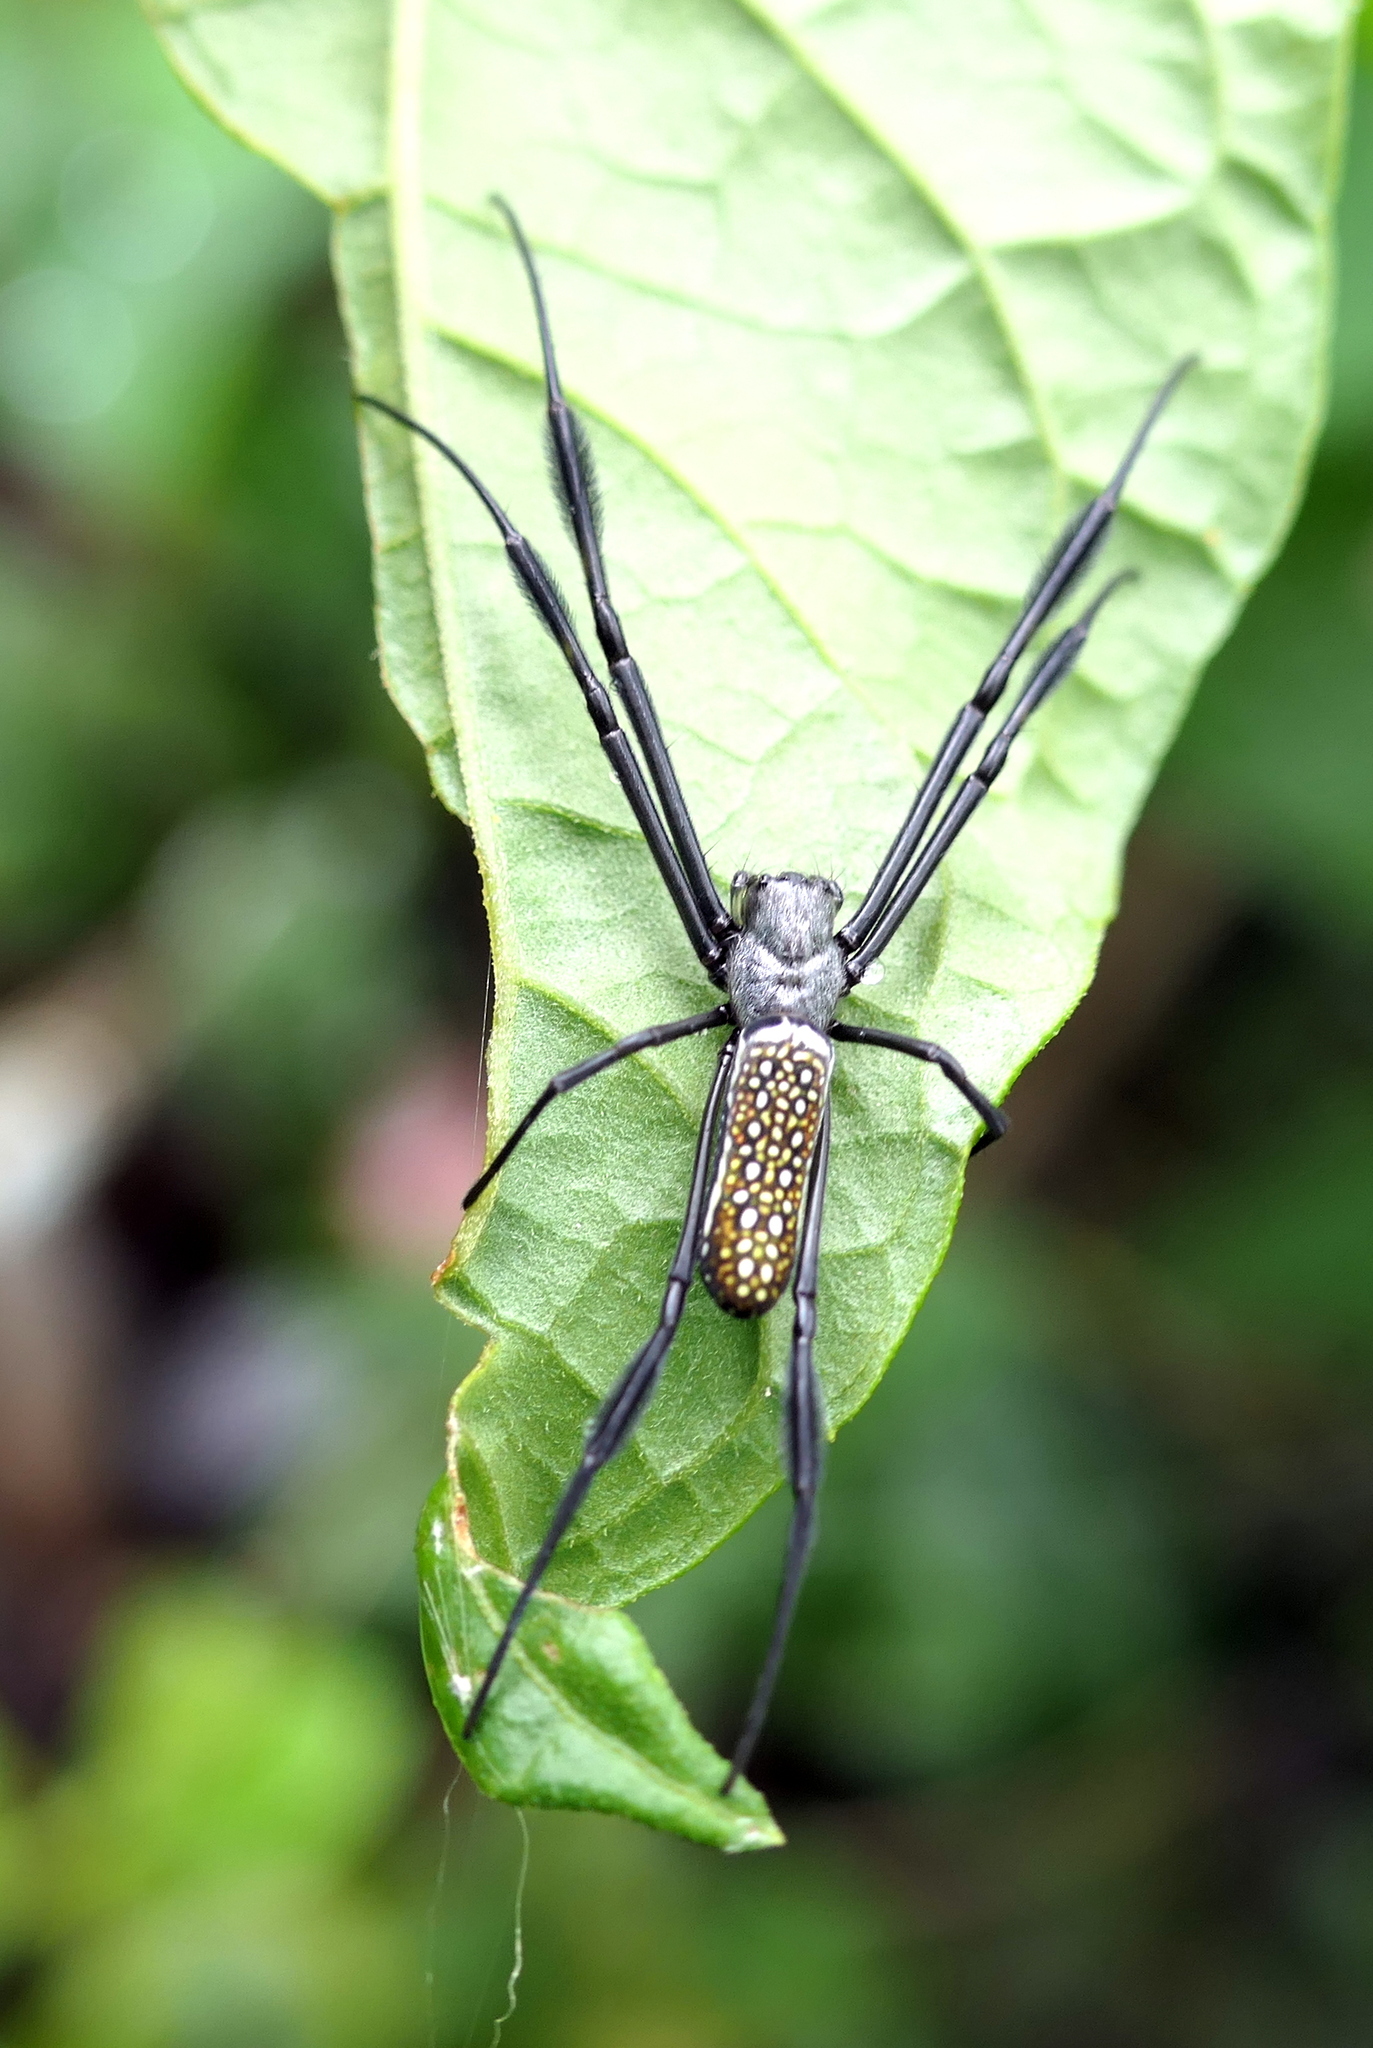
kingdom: Animalia
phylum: Arthropoda
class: Arachnida
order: Araneae
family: Araneidae
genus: Trichonephila
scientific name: Trichonephila clavipes
